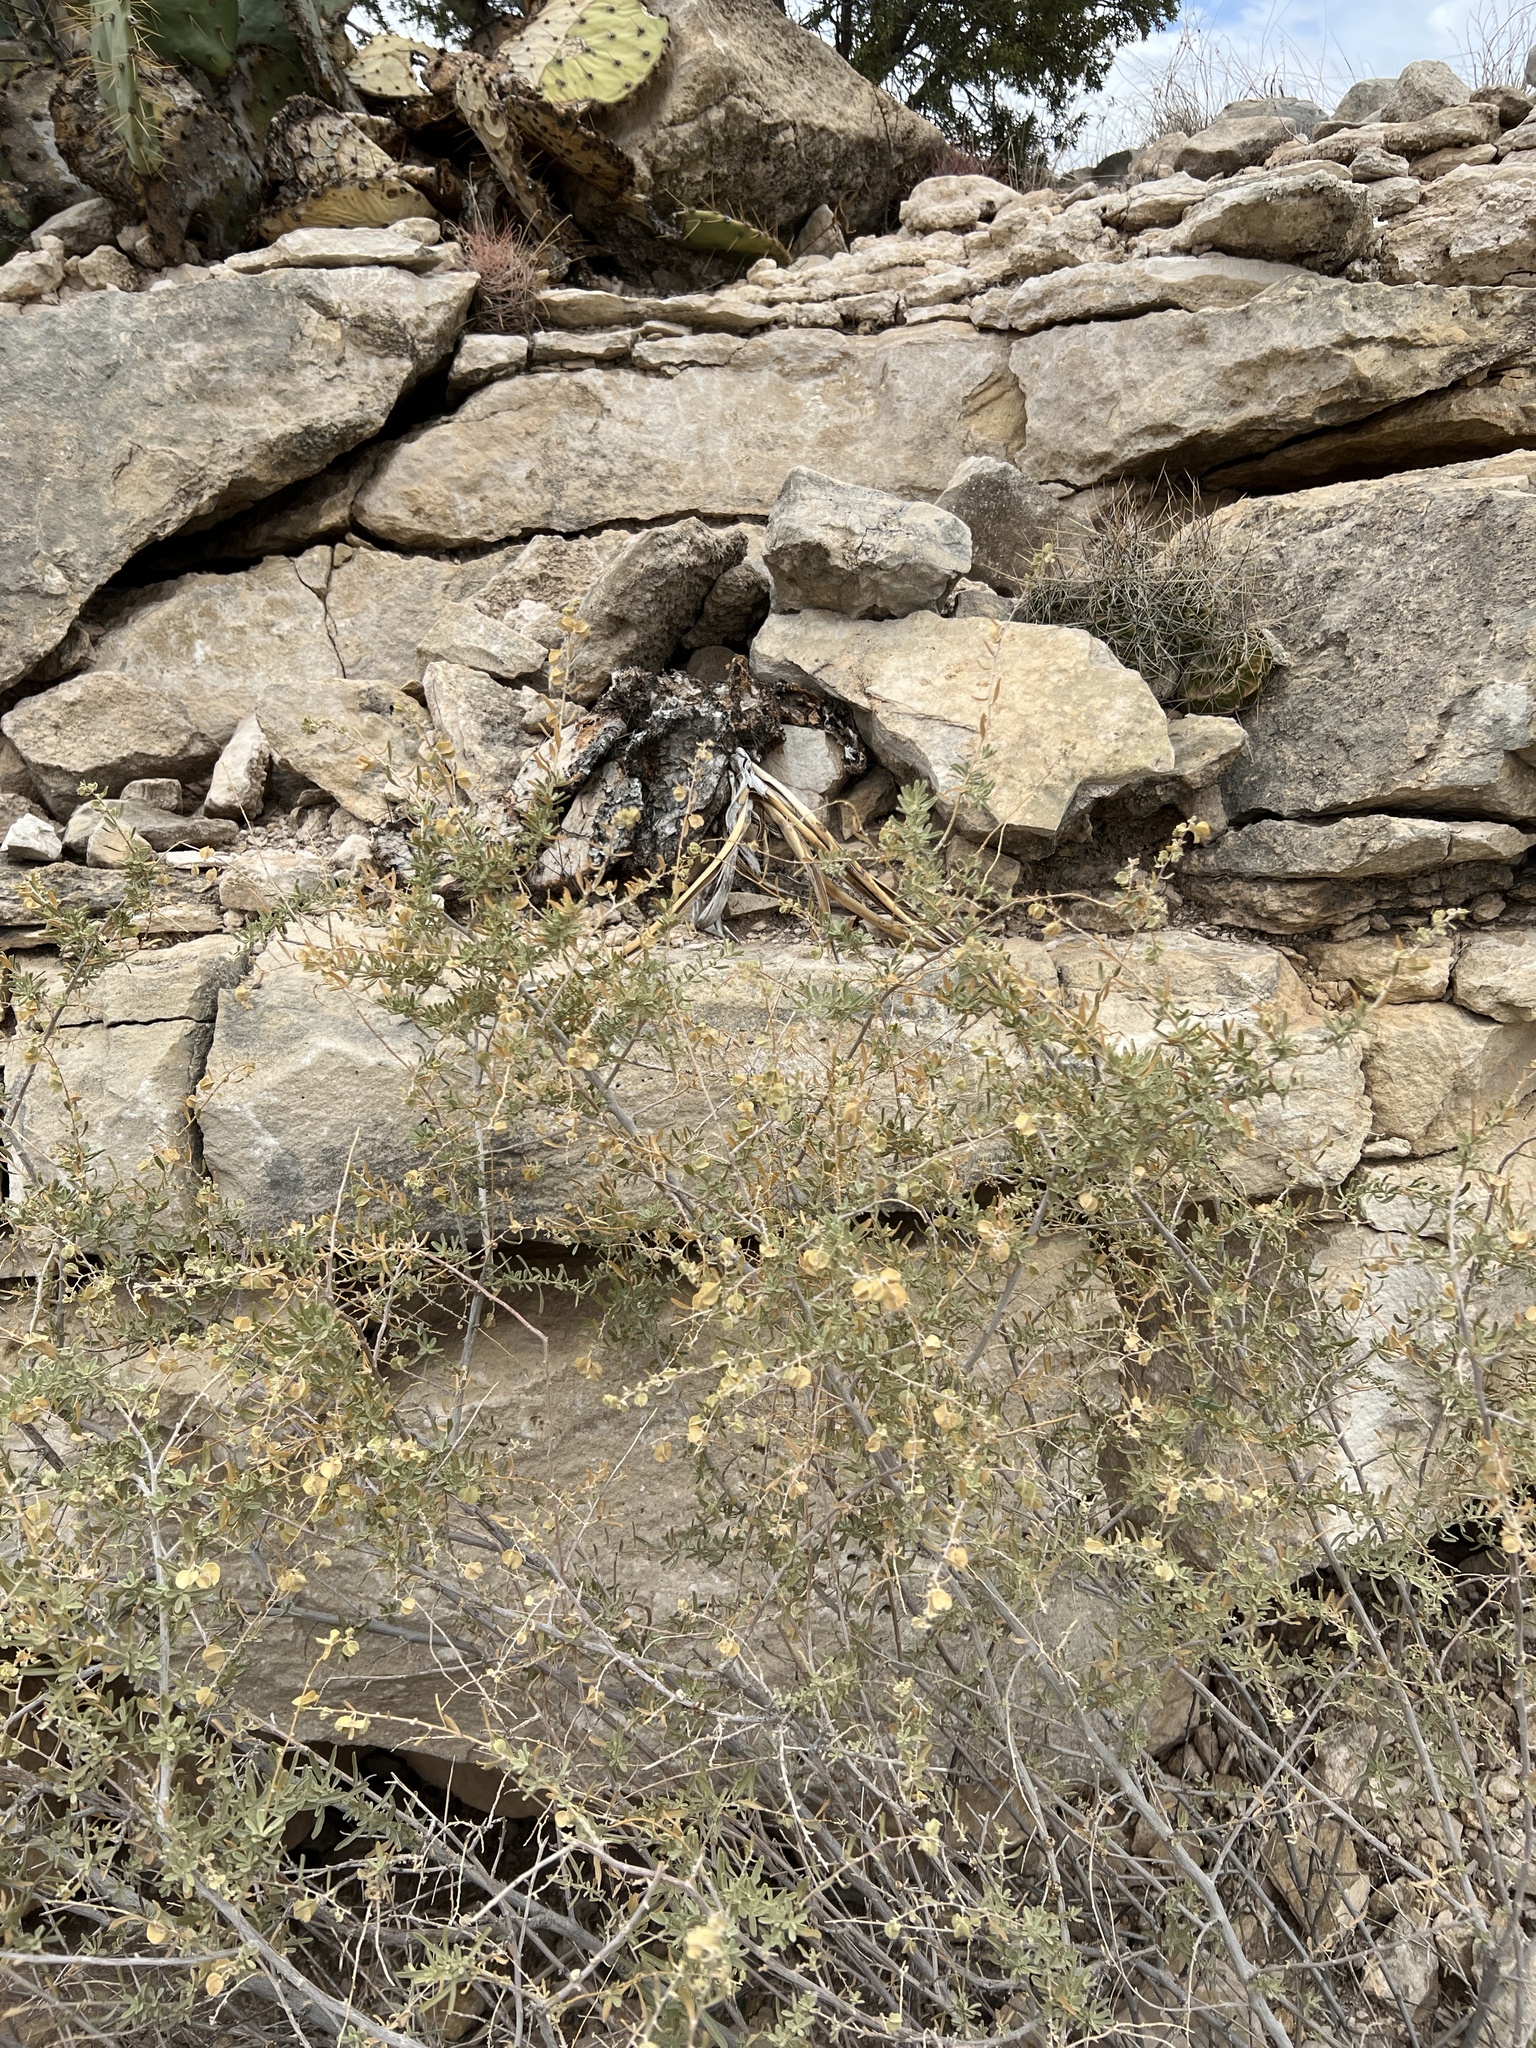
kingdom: Plantae
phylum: Tracheophyta
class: Magnoliopsida
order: Caryophyllales
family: Amaranthaceae
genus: Atriplex
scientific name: Atriplex canescens
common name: Four-wing saltbush
